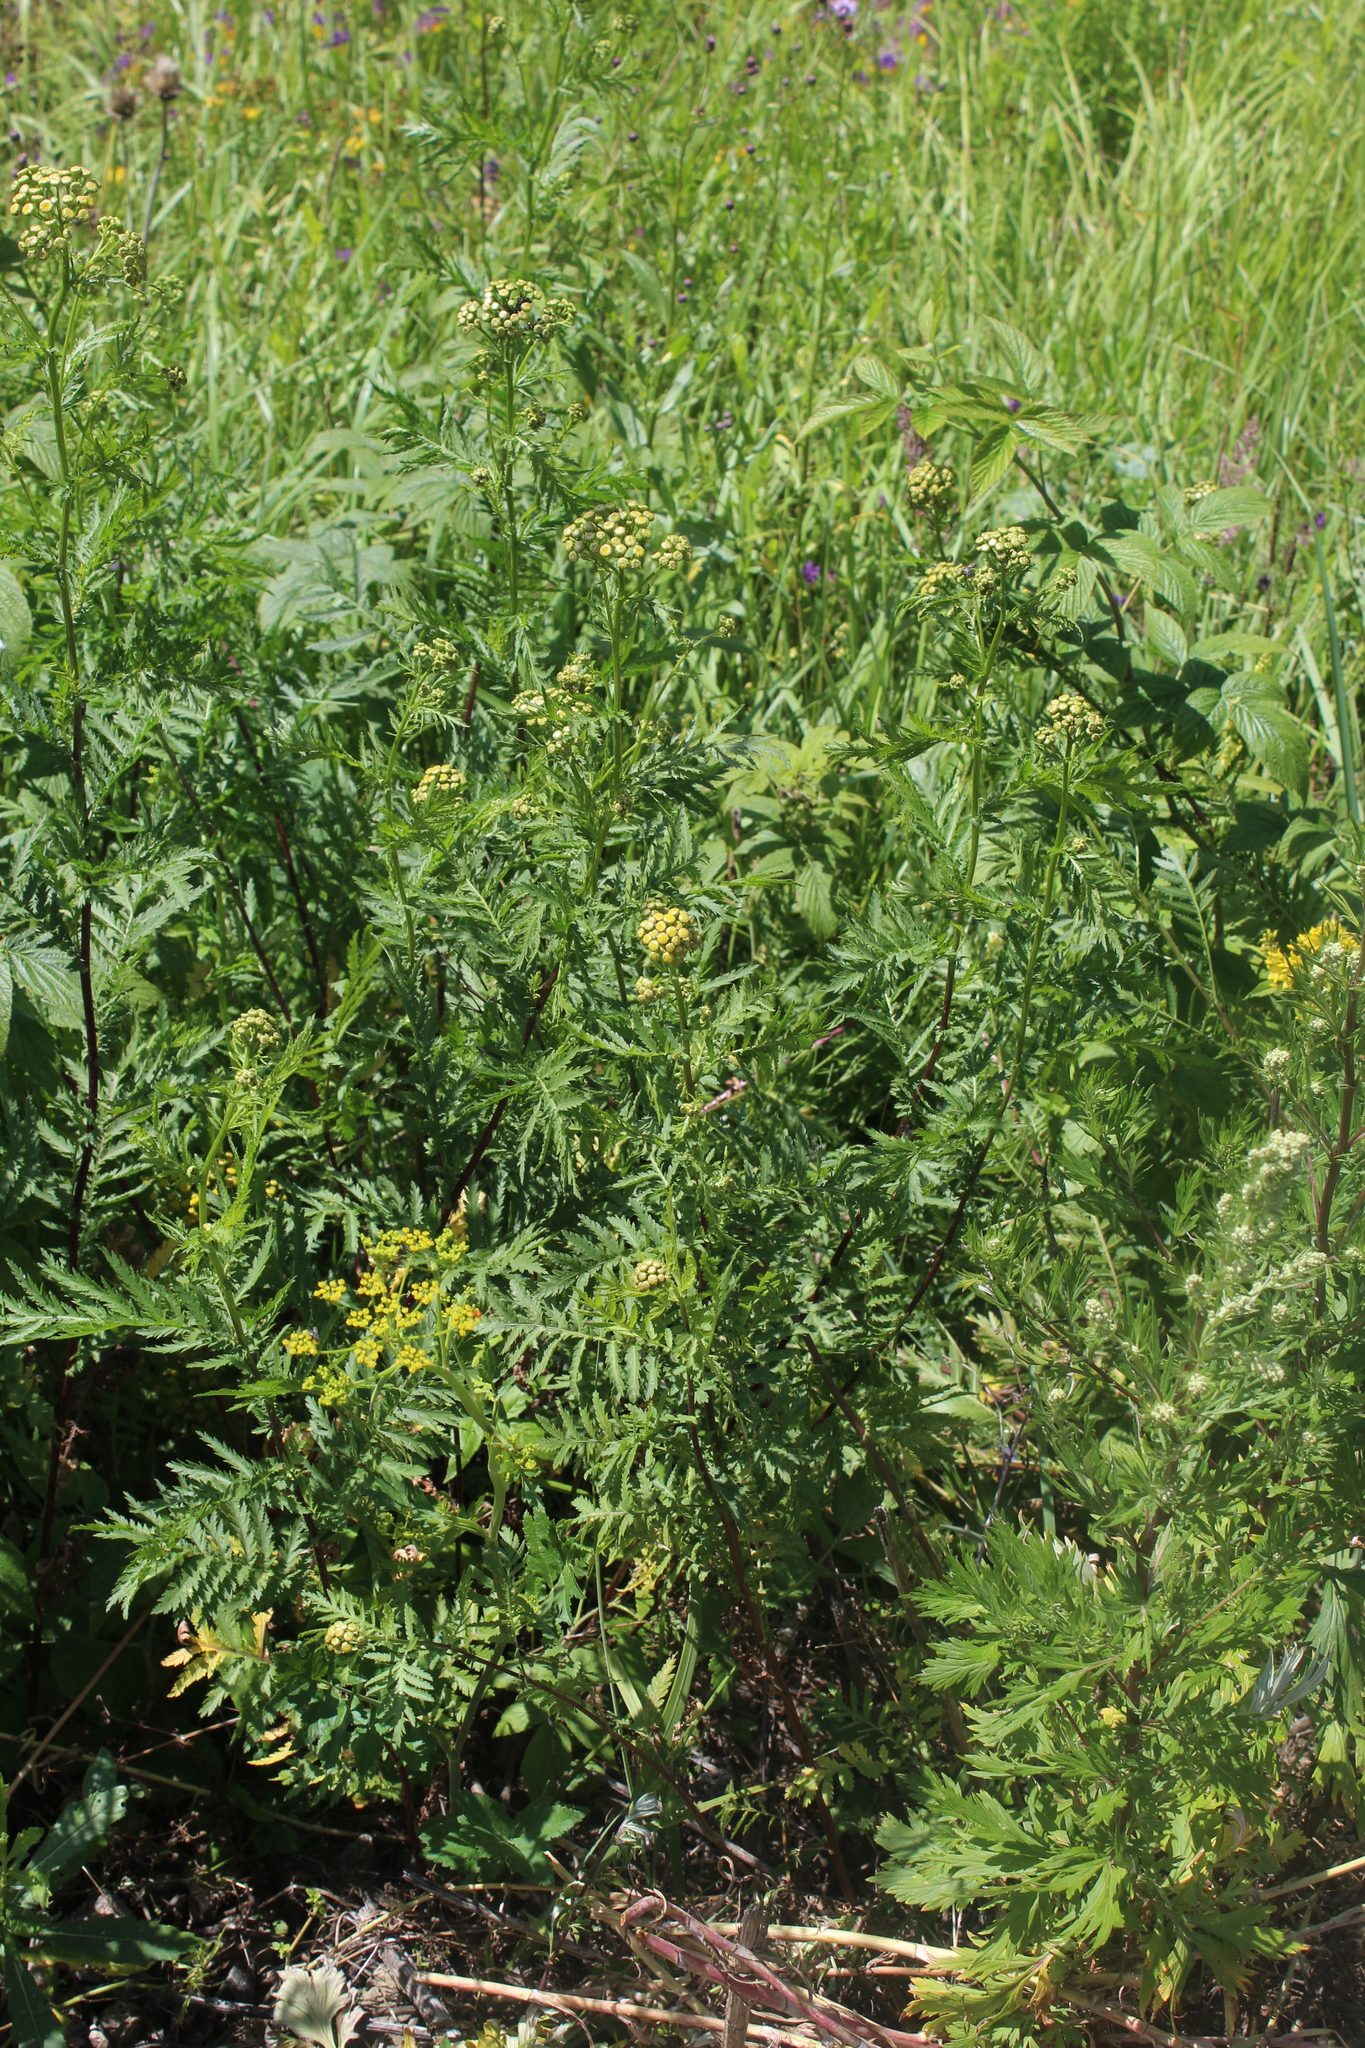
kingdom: Plantae
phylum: Tracheophyta
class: Magnoliopsida
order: Asterales
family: Asteraceae
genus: Tanacetum
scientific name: Tanacetum vulgare
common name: Common tansy
